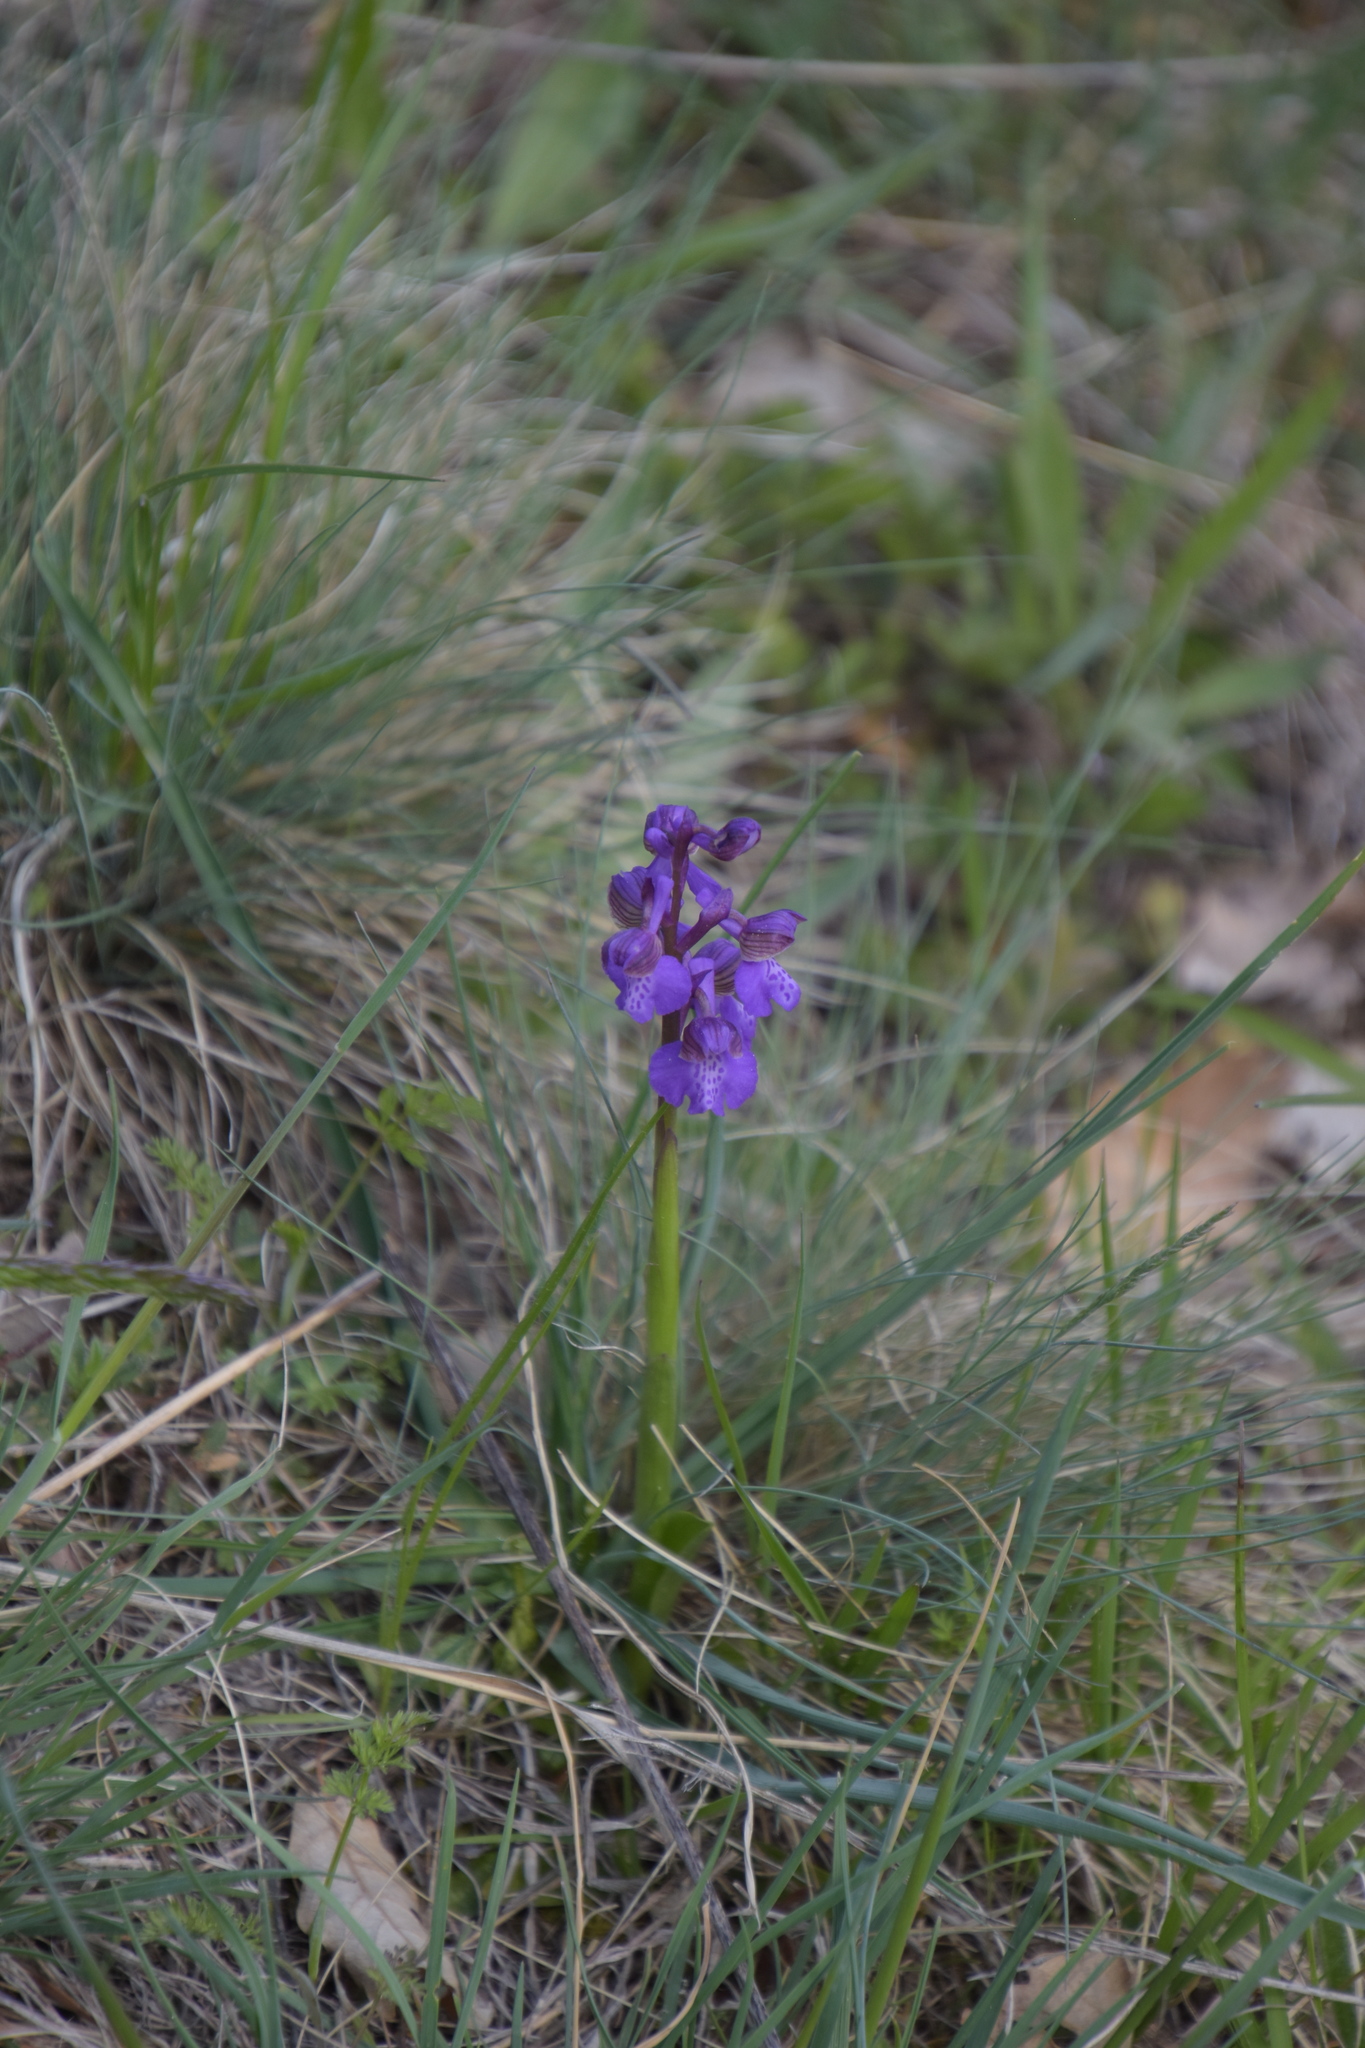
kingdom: Plantae
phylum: Tracheophyta
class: Liliopsida
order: Asparagales
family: Orchidaceae
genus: Anacamptis
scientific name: Anacamptis morio
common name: Green-winged orchid
